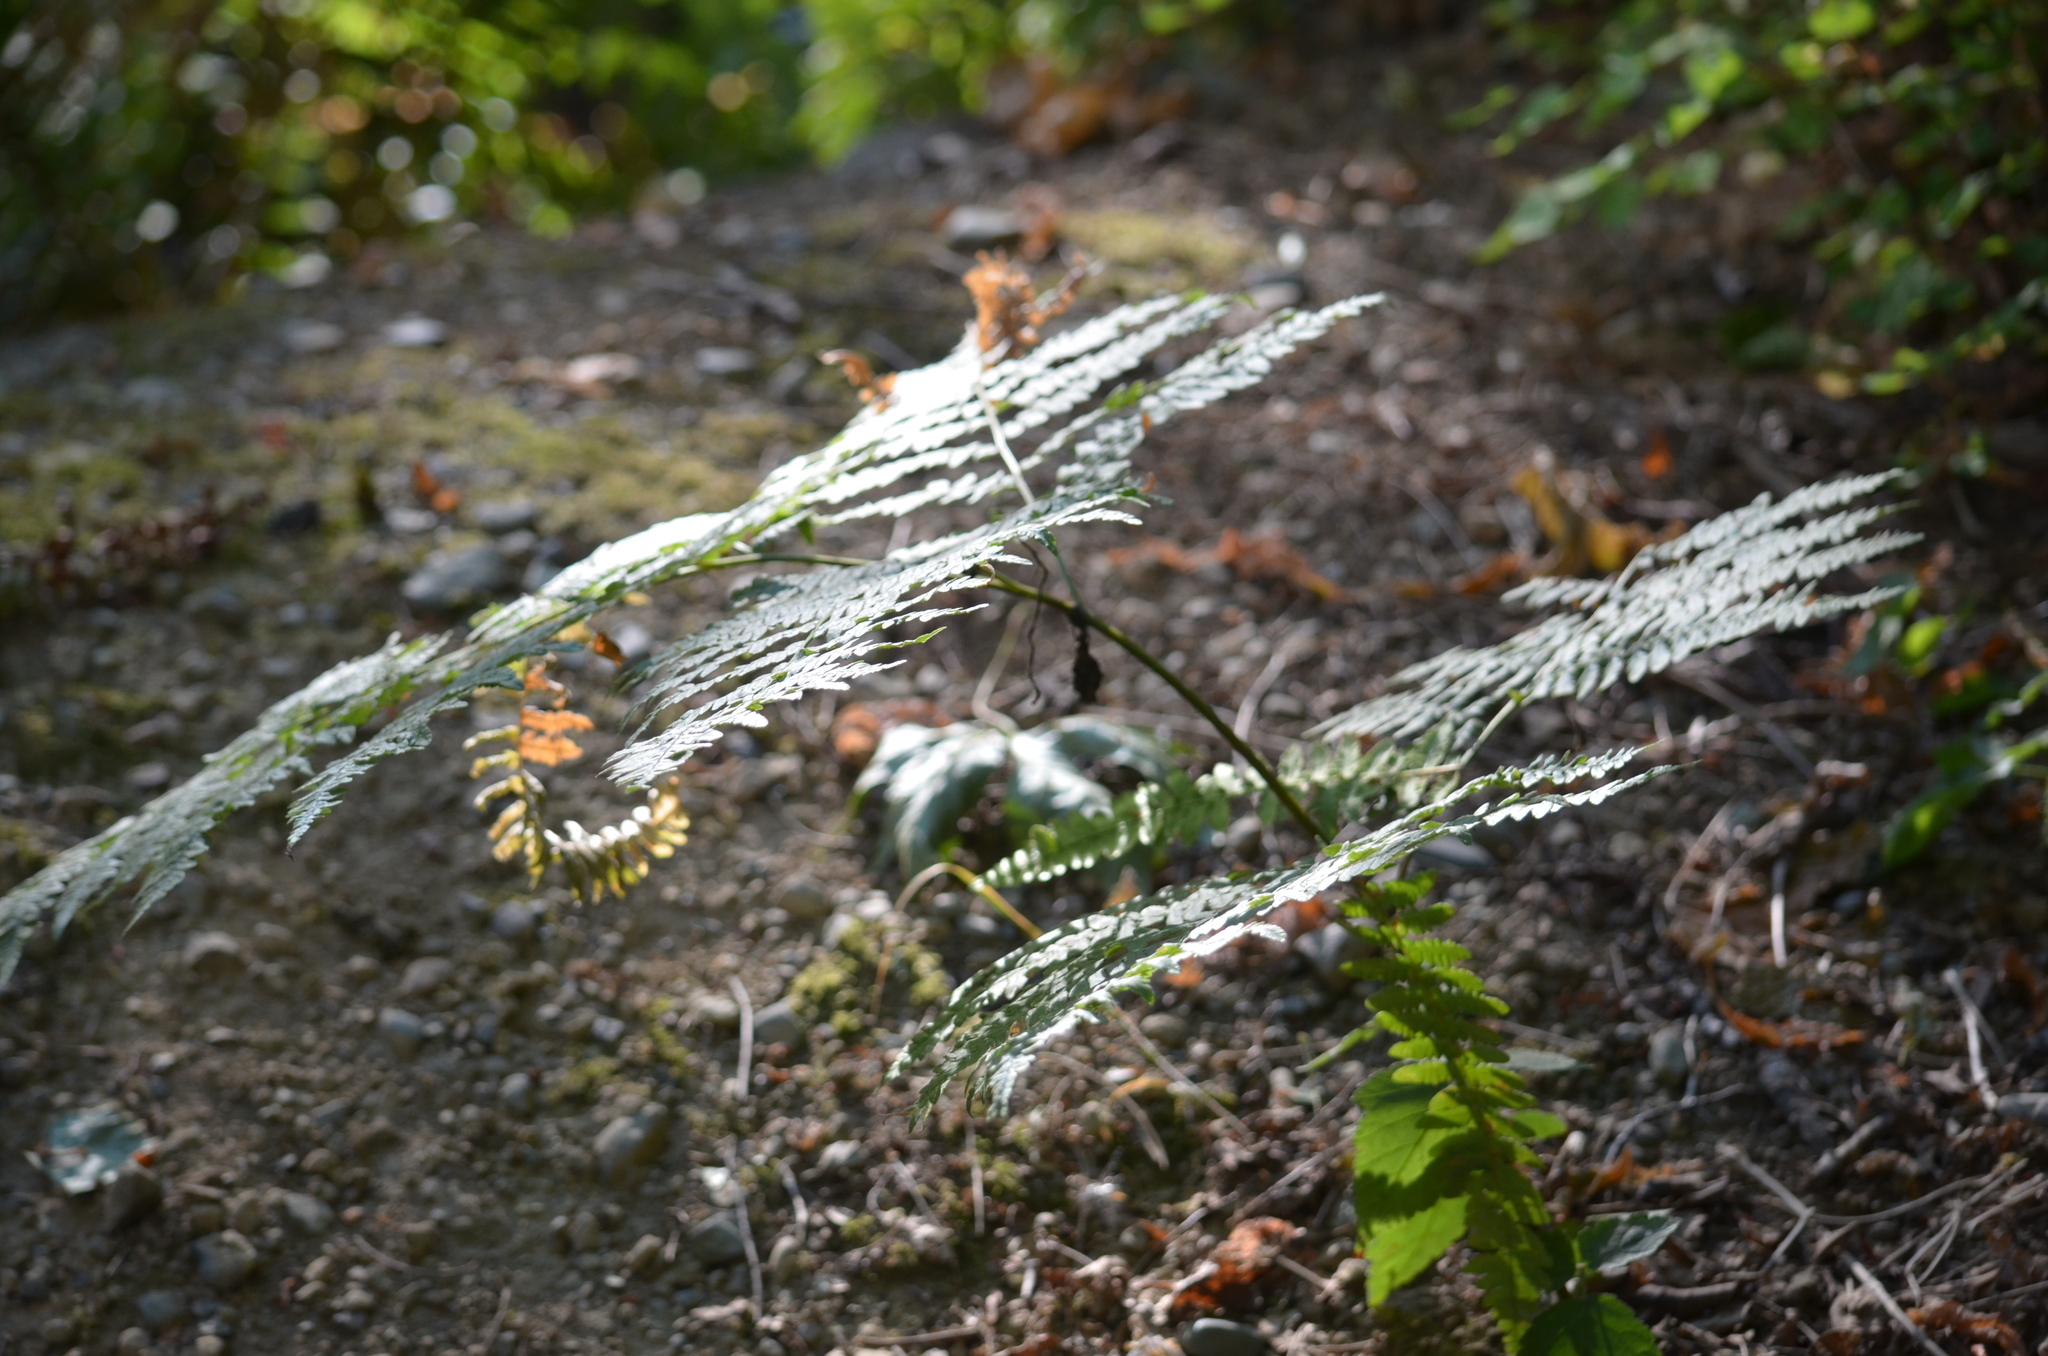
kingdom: Plantae
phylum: Tracheophyta
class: Polypodiopsida
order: Polypodiales
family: Dennstaedtiaceae
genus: Pteridium
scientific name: Pteridium aquilinum
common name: Bracken
